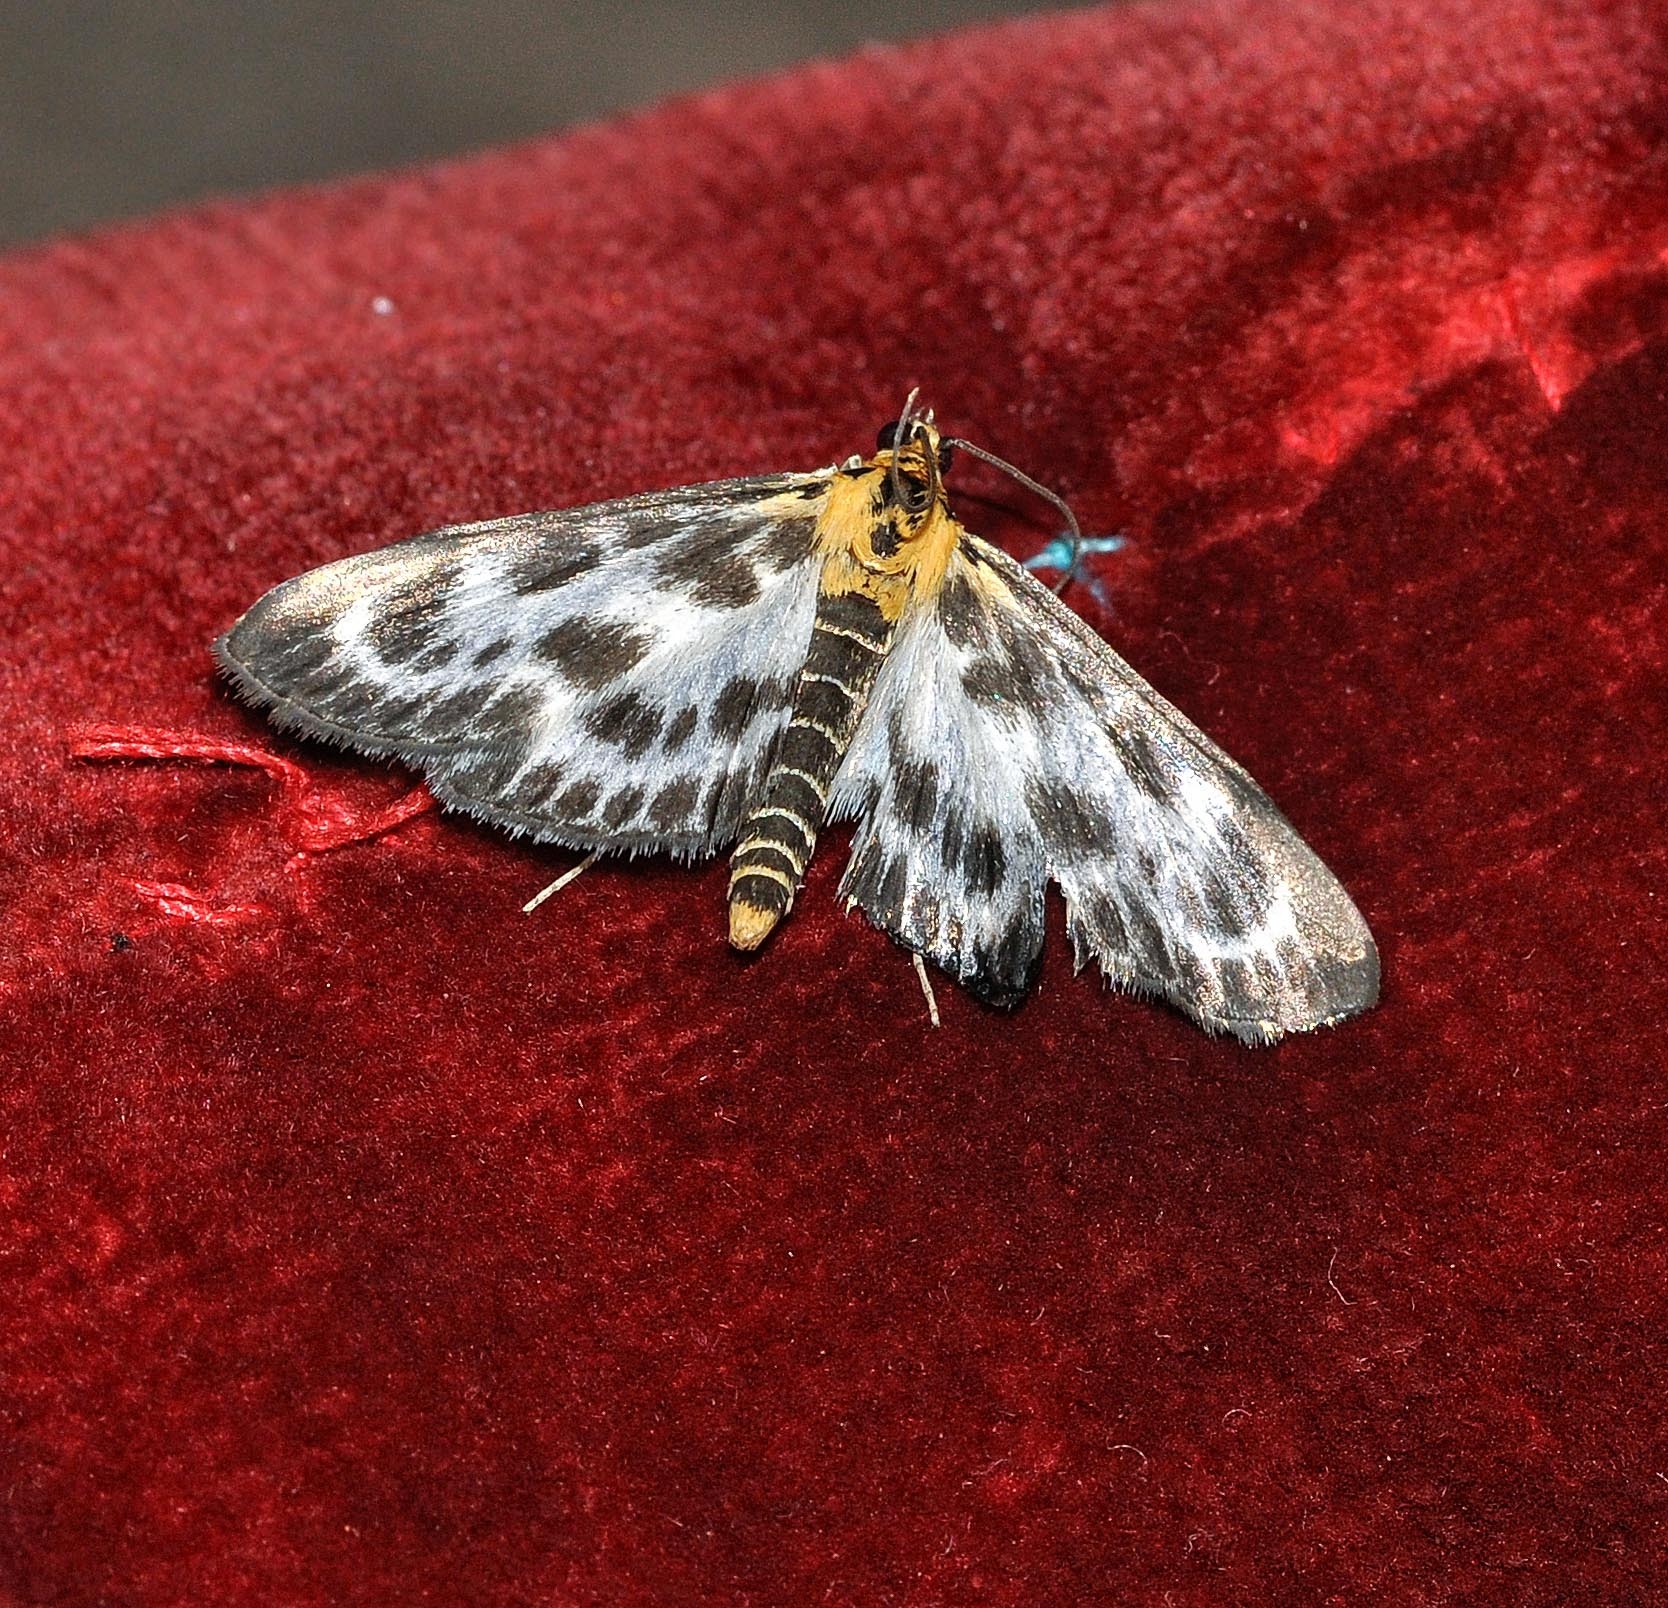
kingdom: Animalia
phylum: Arthropoda
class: Insecta
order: Lepidoptera
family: Crambidae
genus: Anania
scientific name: Anania hortulata
